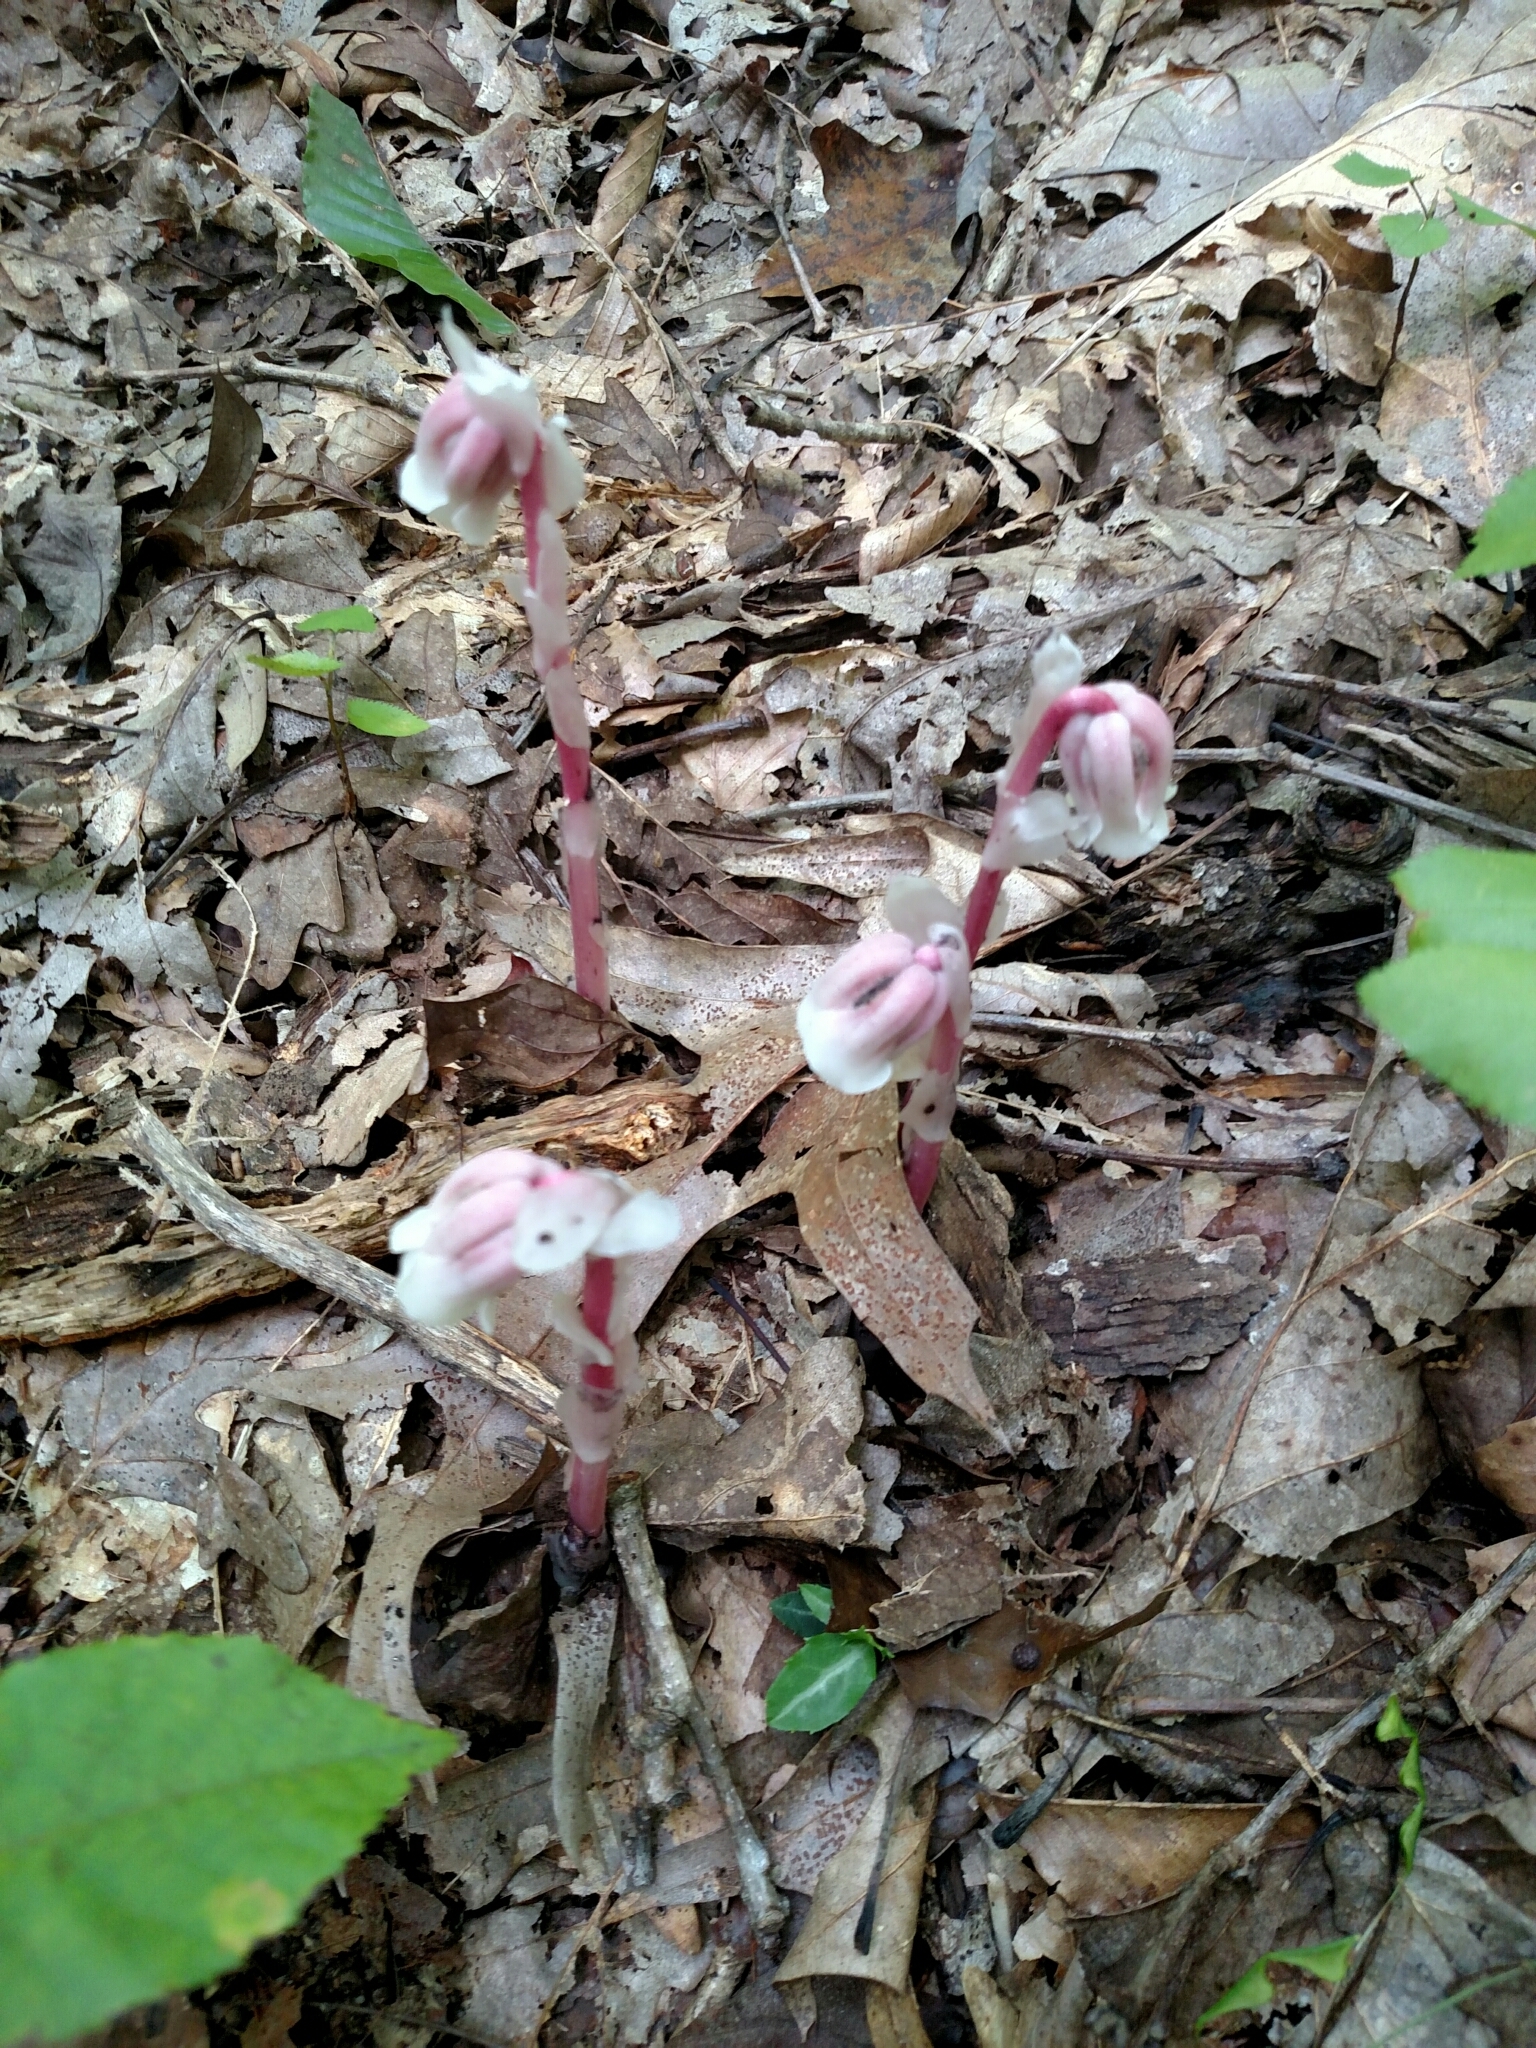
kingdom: Plantae
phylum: Tracheophyta
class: Magnoliopsida
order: Ericales
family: Ericaceae
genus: Monotropa
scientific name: Monotropa uniflora
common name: Convulsion root
